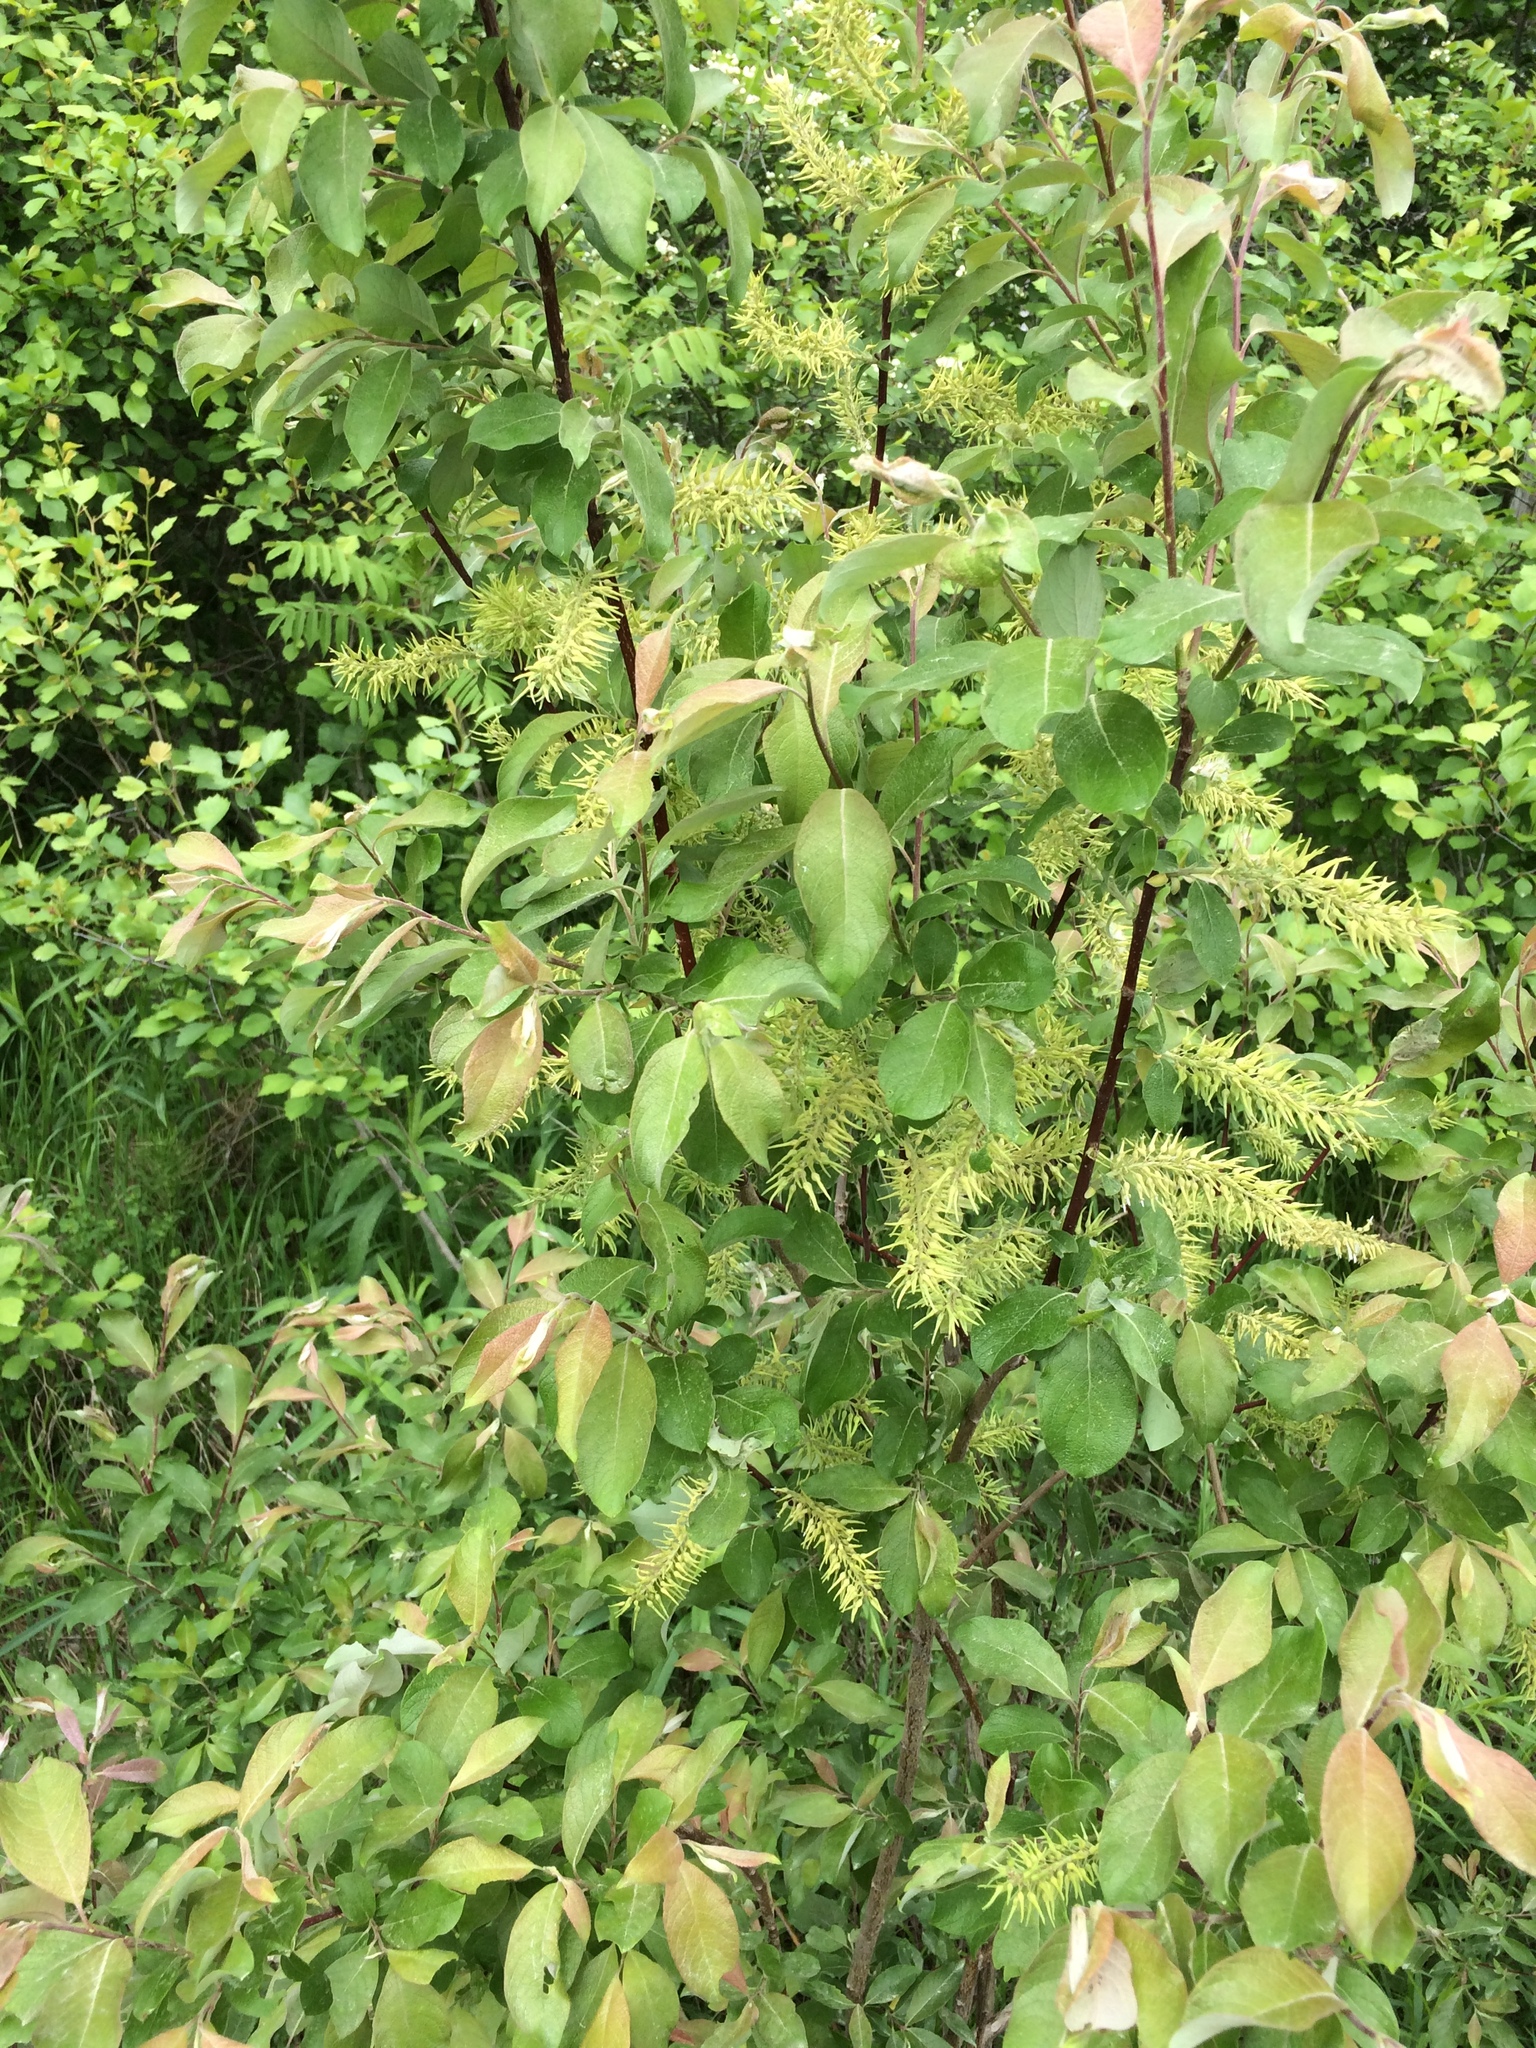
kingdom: Plantae
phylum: Tracheophyta
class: Magnoliopsida
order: Malpighiales
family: Salicaceae
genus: Salix
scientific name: Salix bebbiana
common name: Bebb's willow
